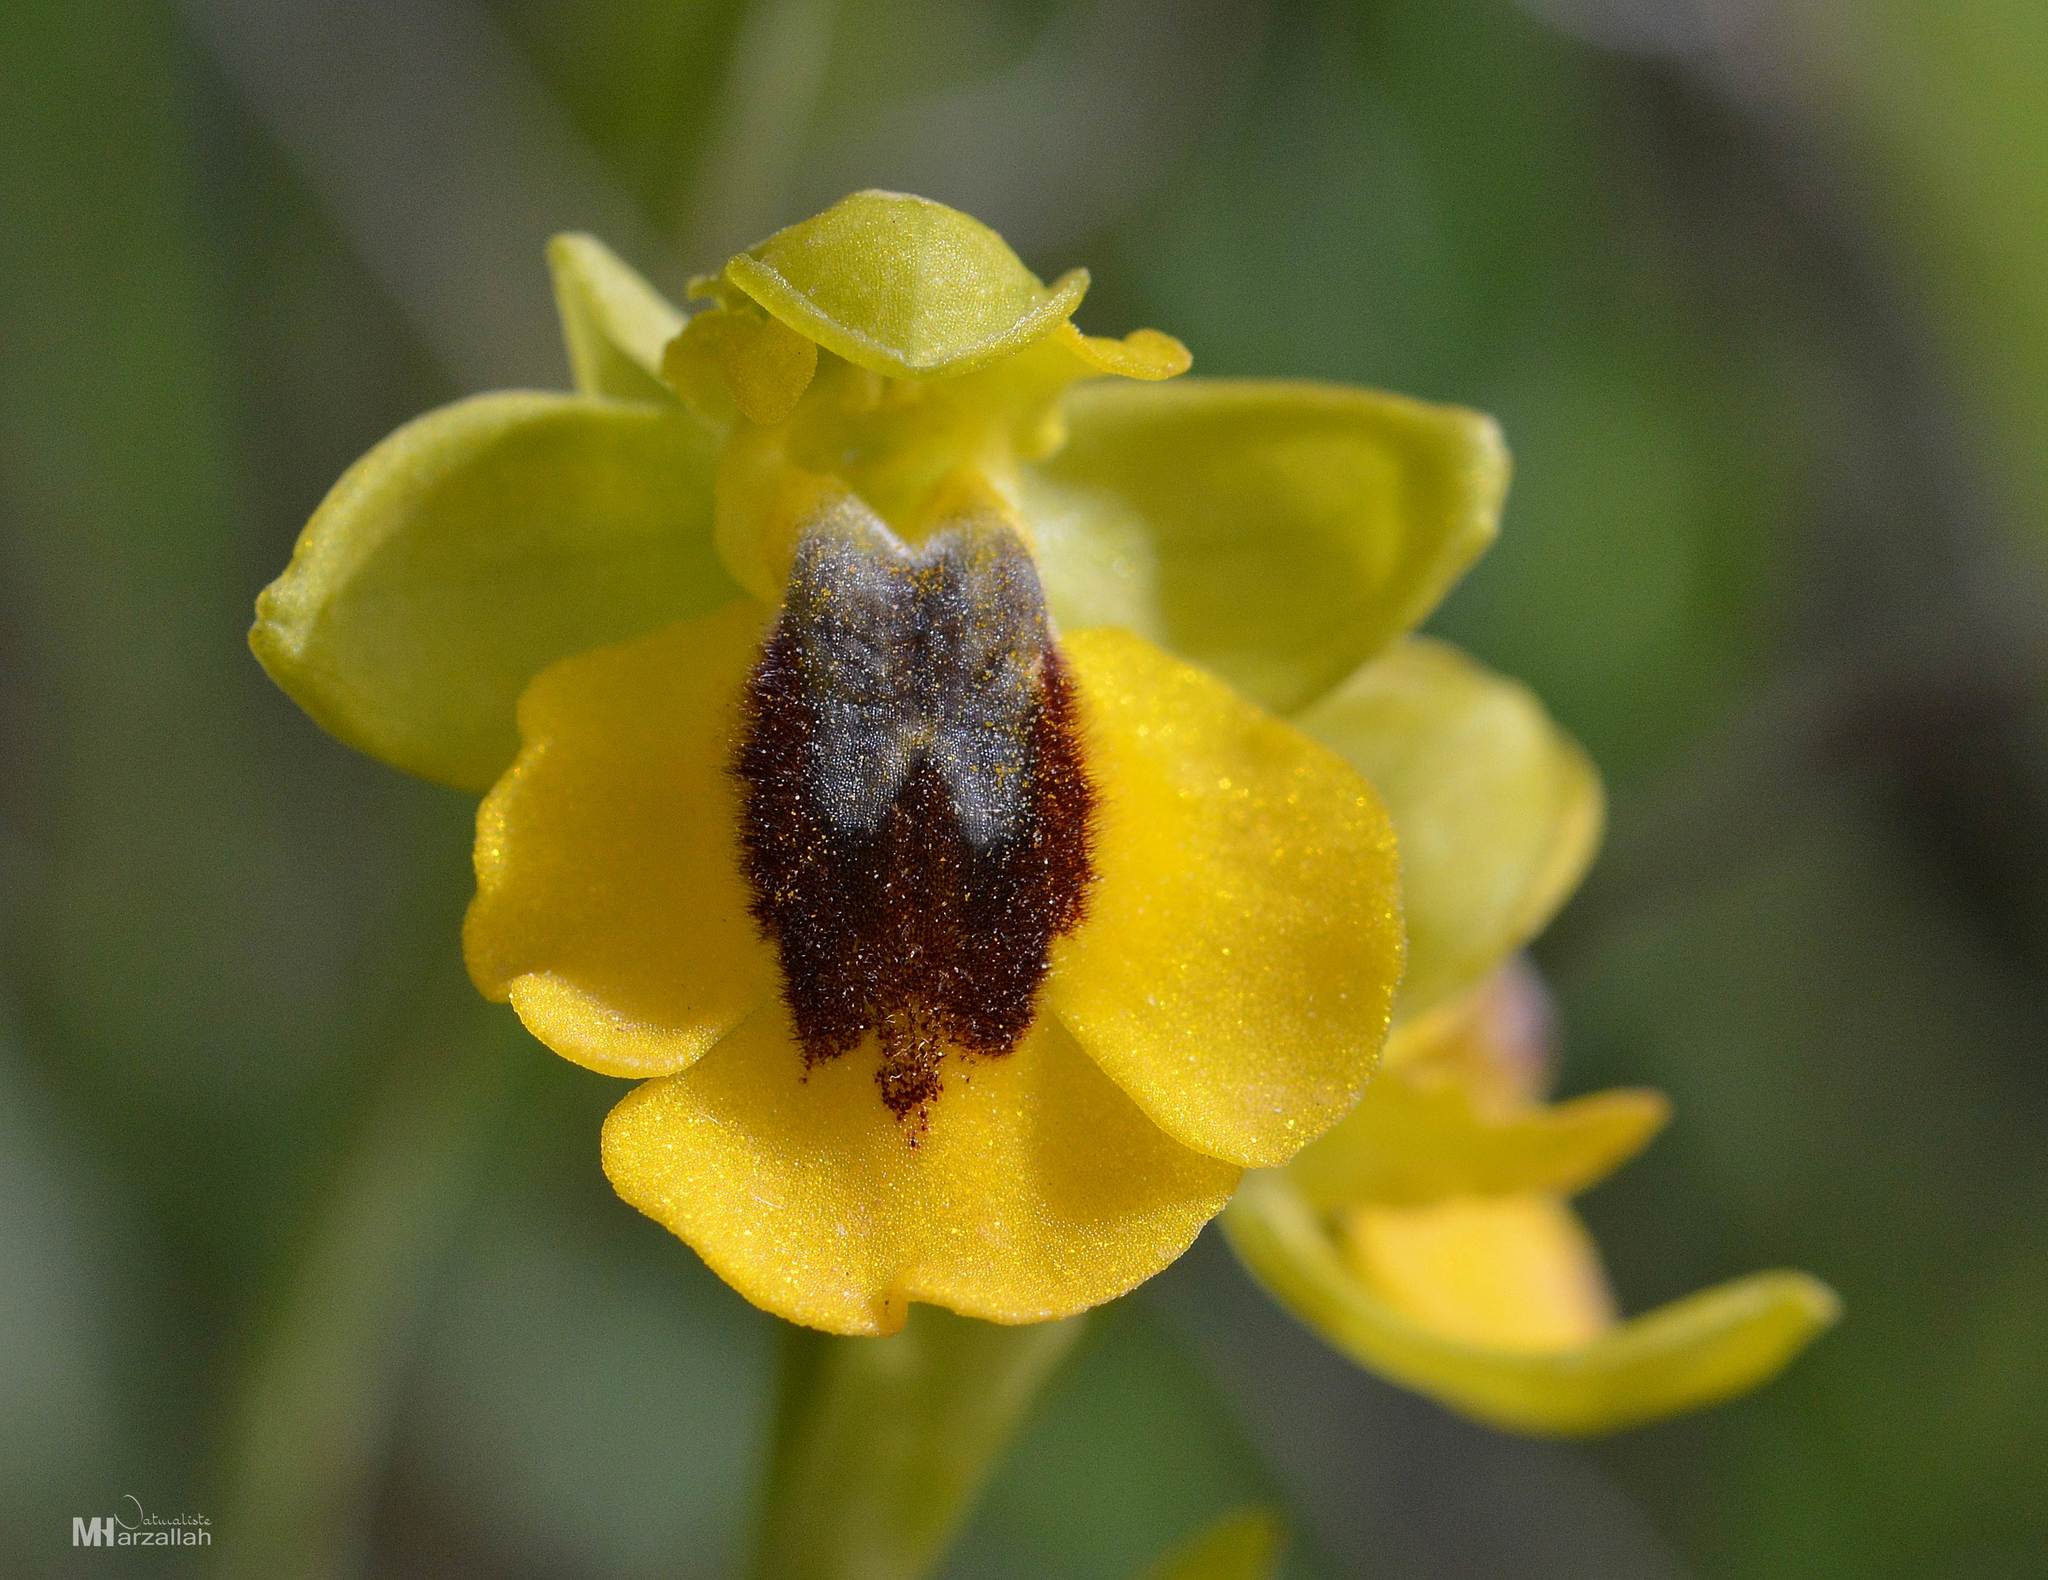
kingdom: Plantae
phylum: Tracheophyta
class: Liliopsida
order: Asparagales
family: Orchidaceae
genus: Ophrys
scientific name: Ophrys lutea
